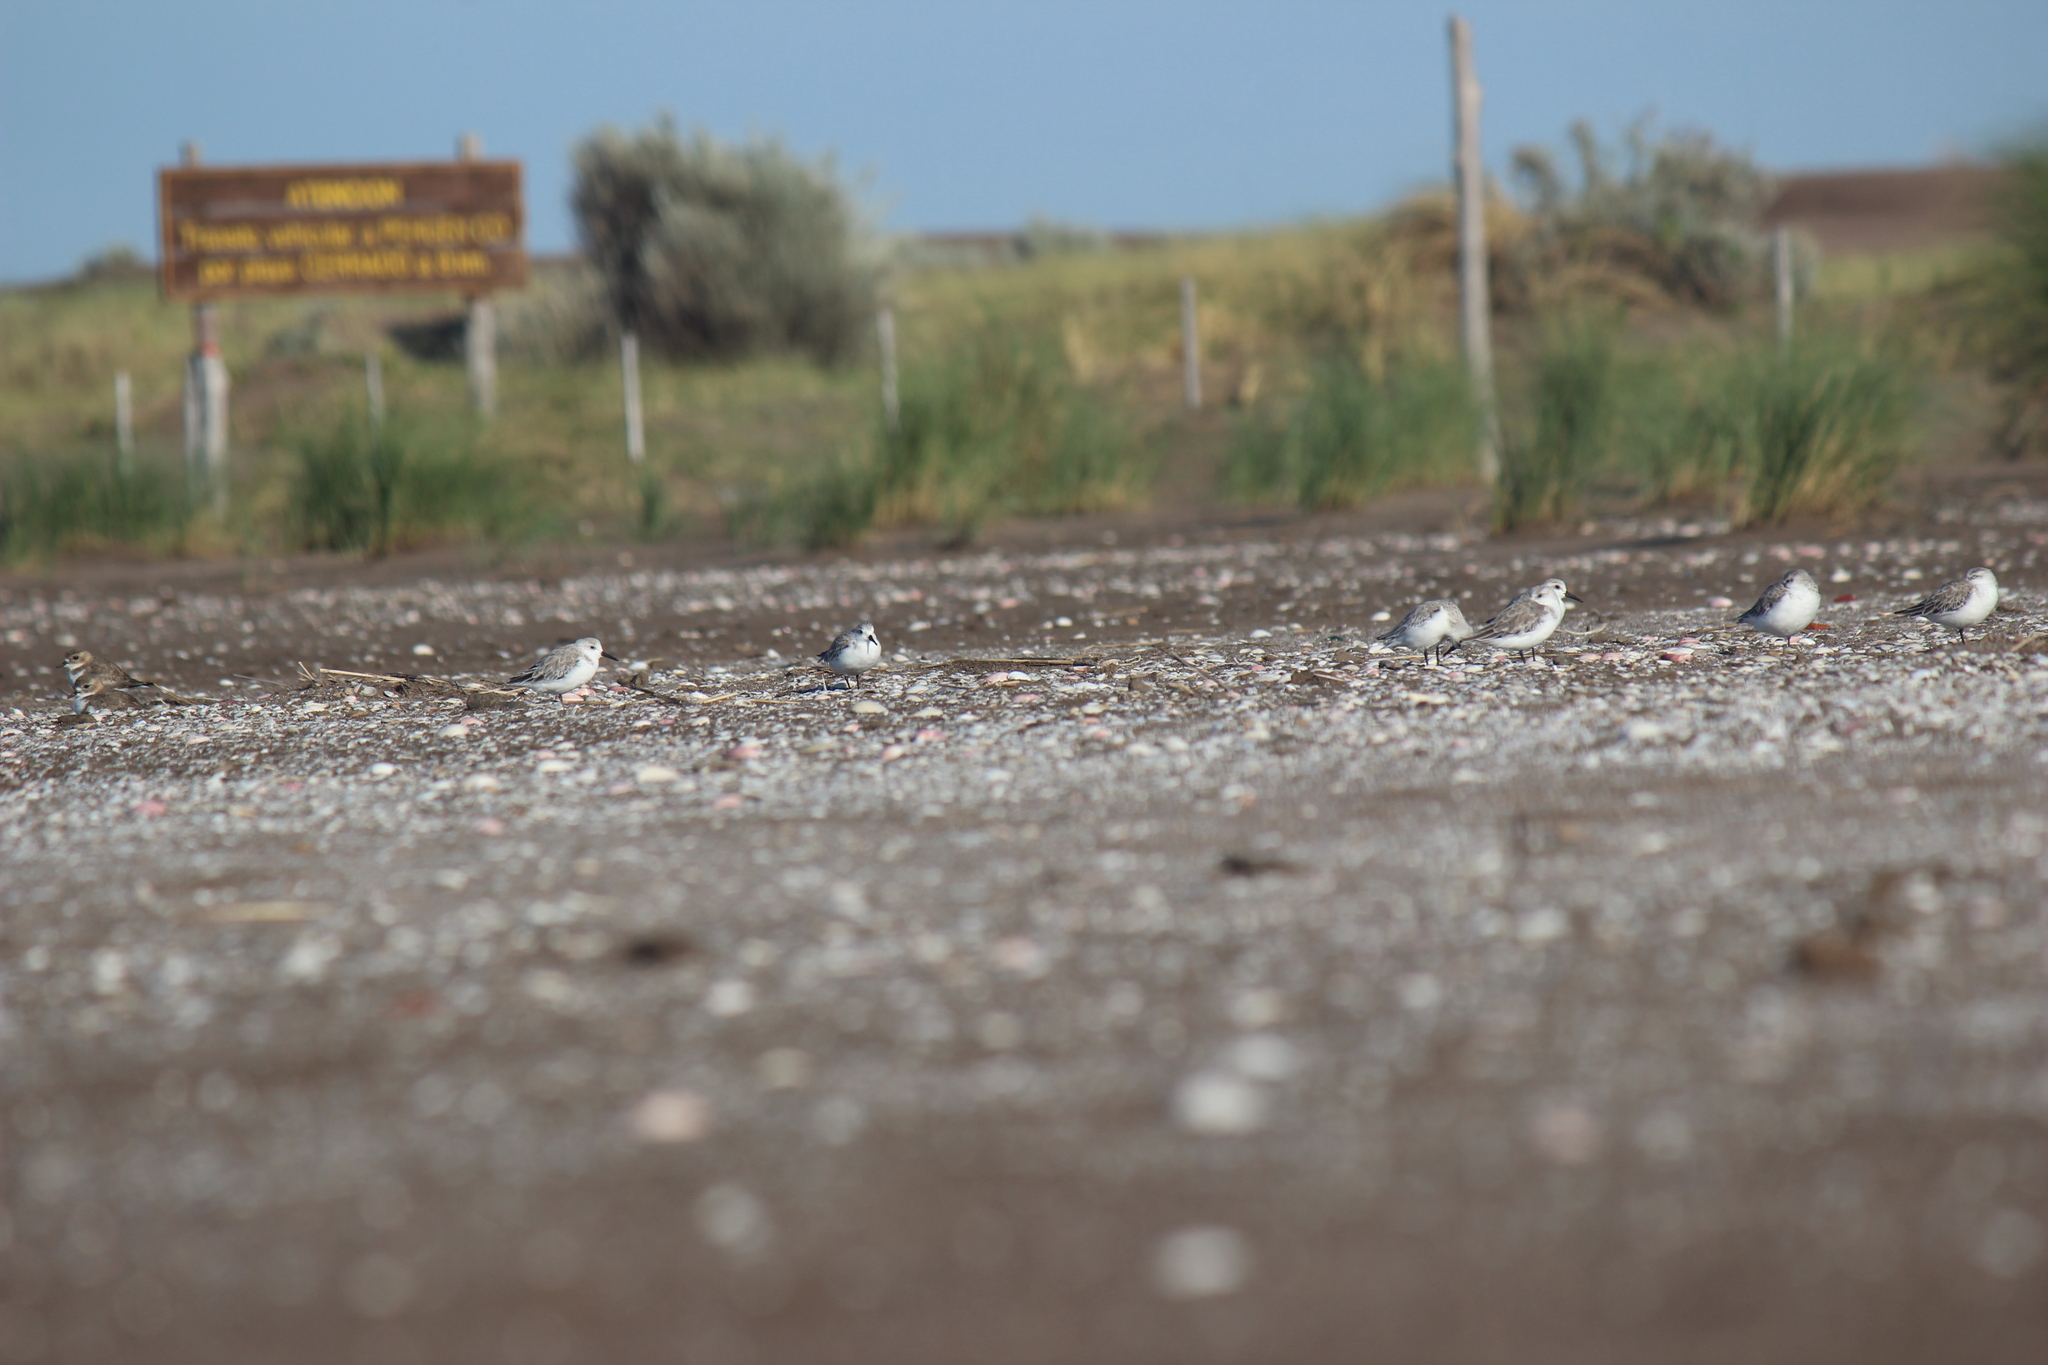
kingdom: Animalia
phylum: Chordata
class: Aves
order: Charadriiformes
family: Scolopacidae
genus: Calidris
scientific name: Calidris alba
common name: Sanderling
